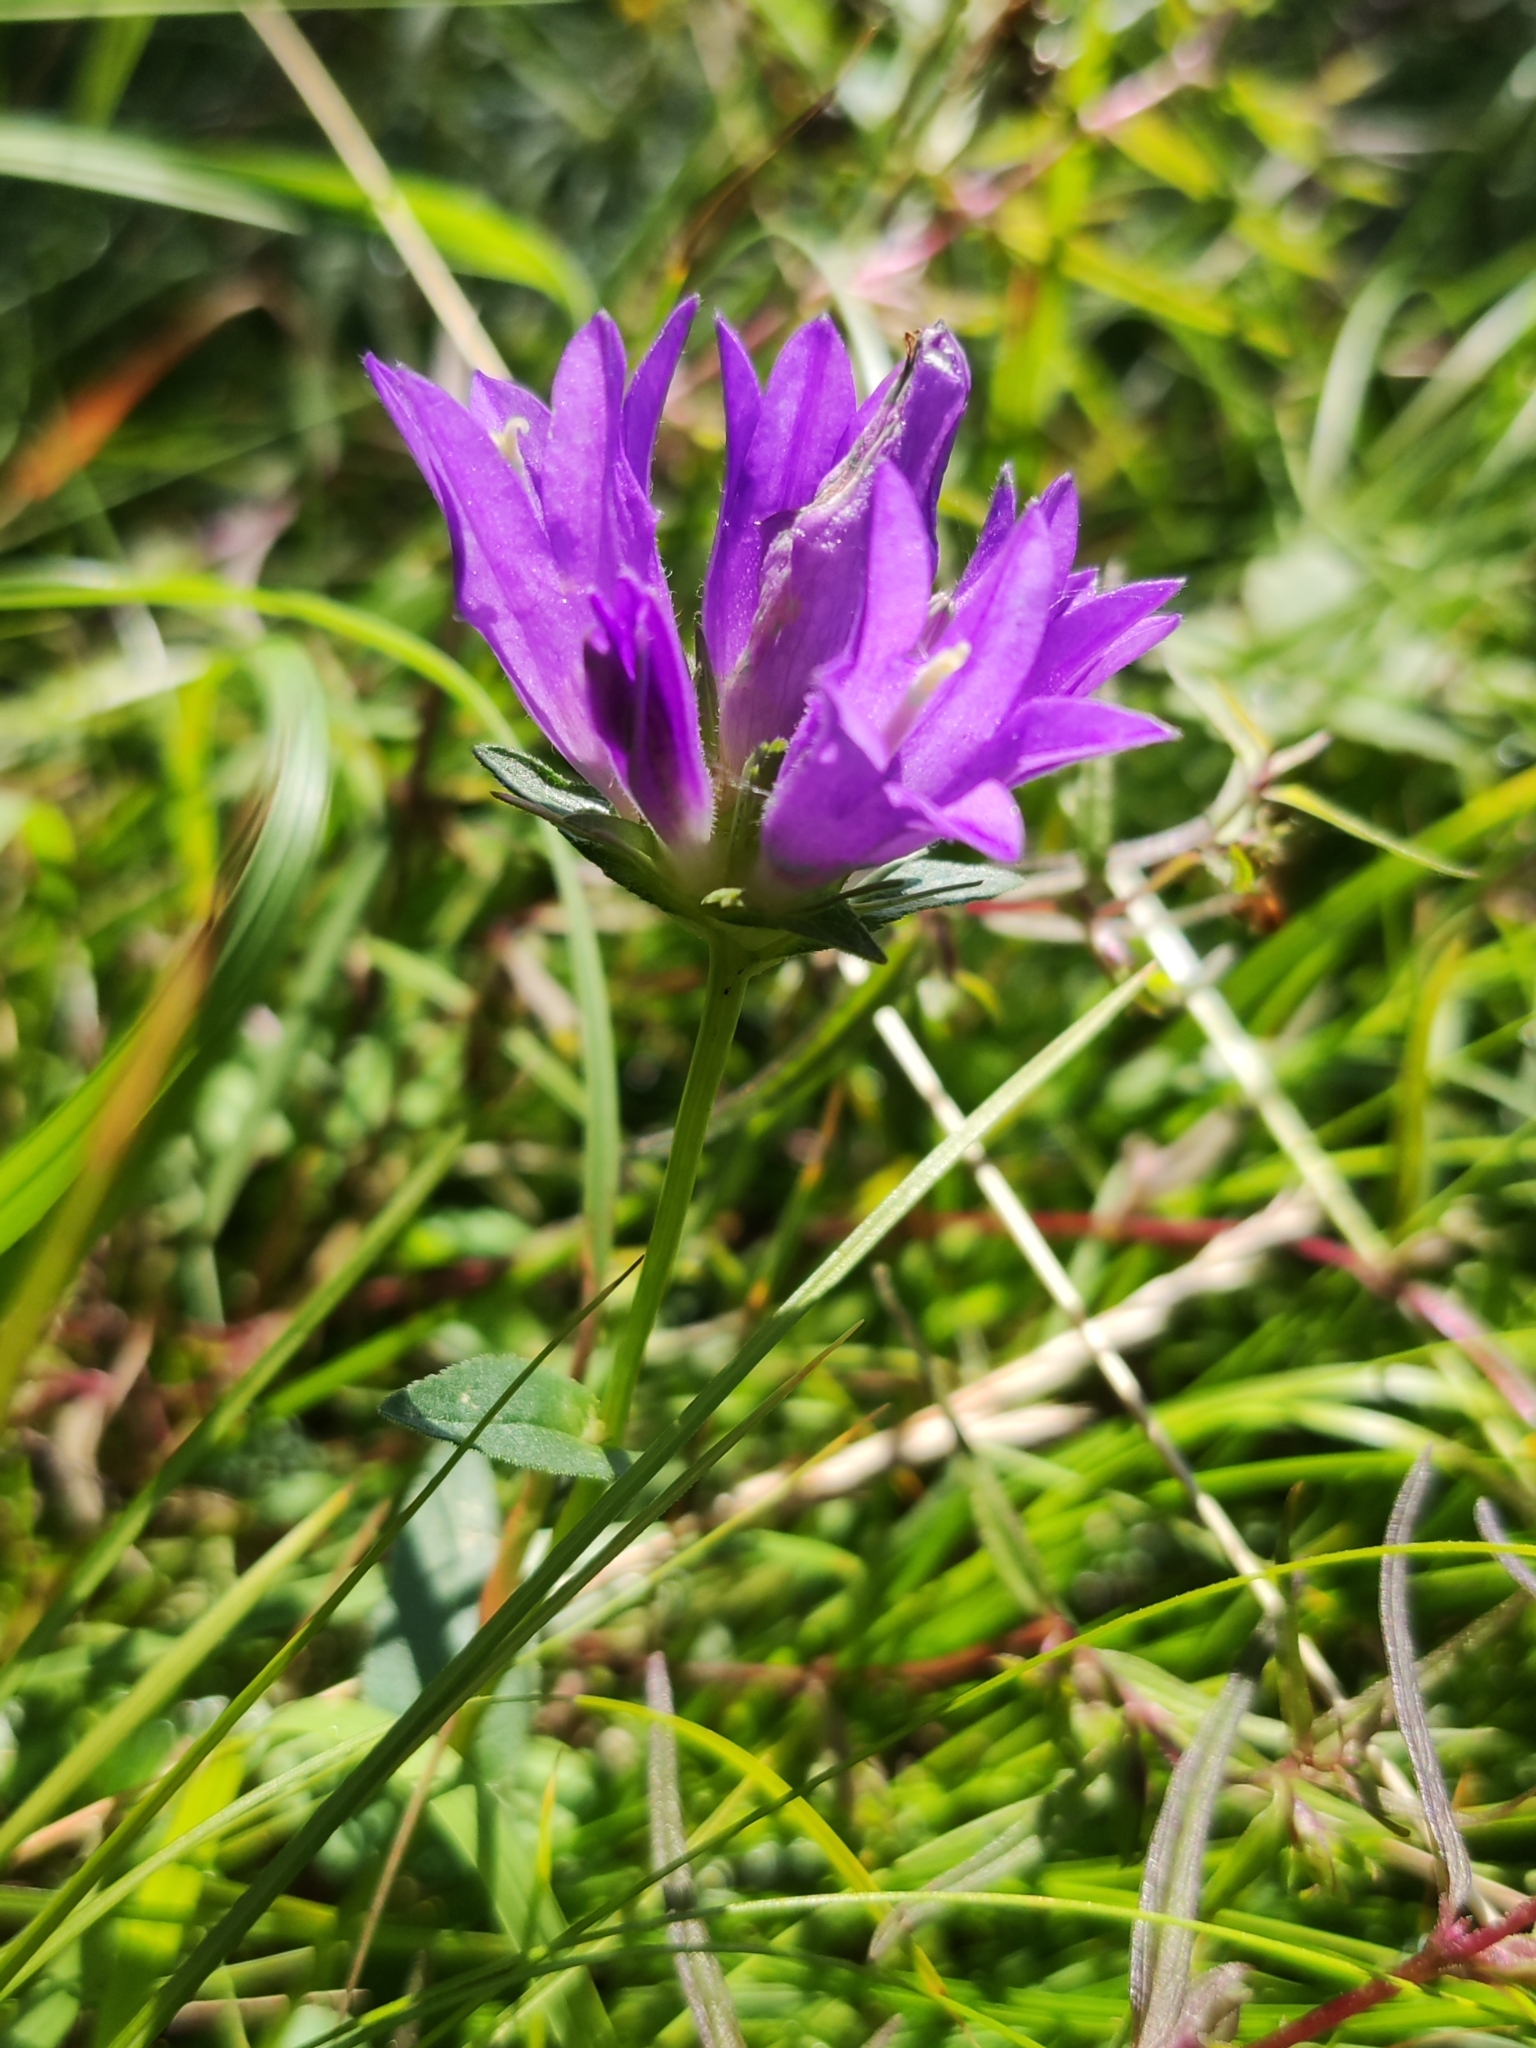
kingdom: Plantae
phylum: Tracheophyta
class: Magnoliopsida
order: Asterales
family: Campanulaceae
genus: Campanula
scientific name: Campanula glomerata
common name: Clustered bellflower
